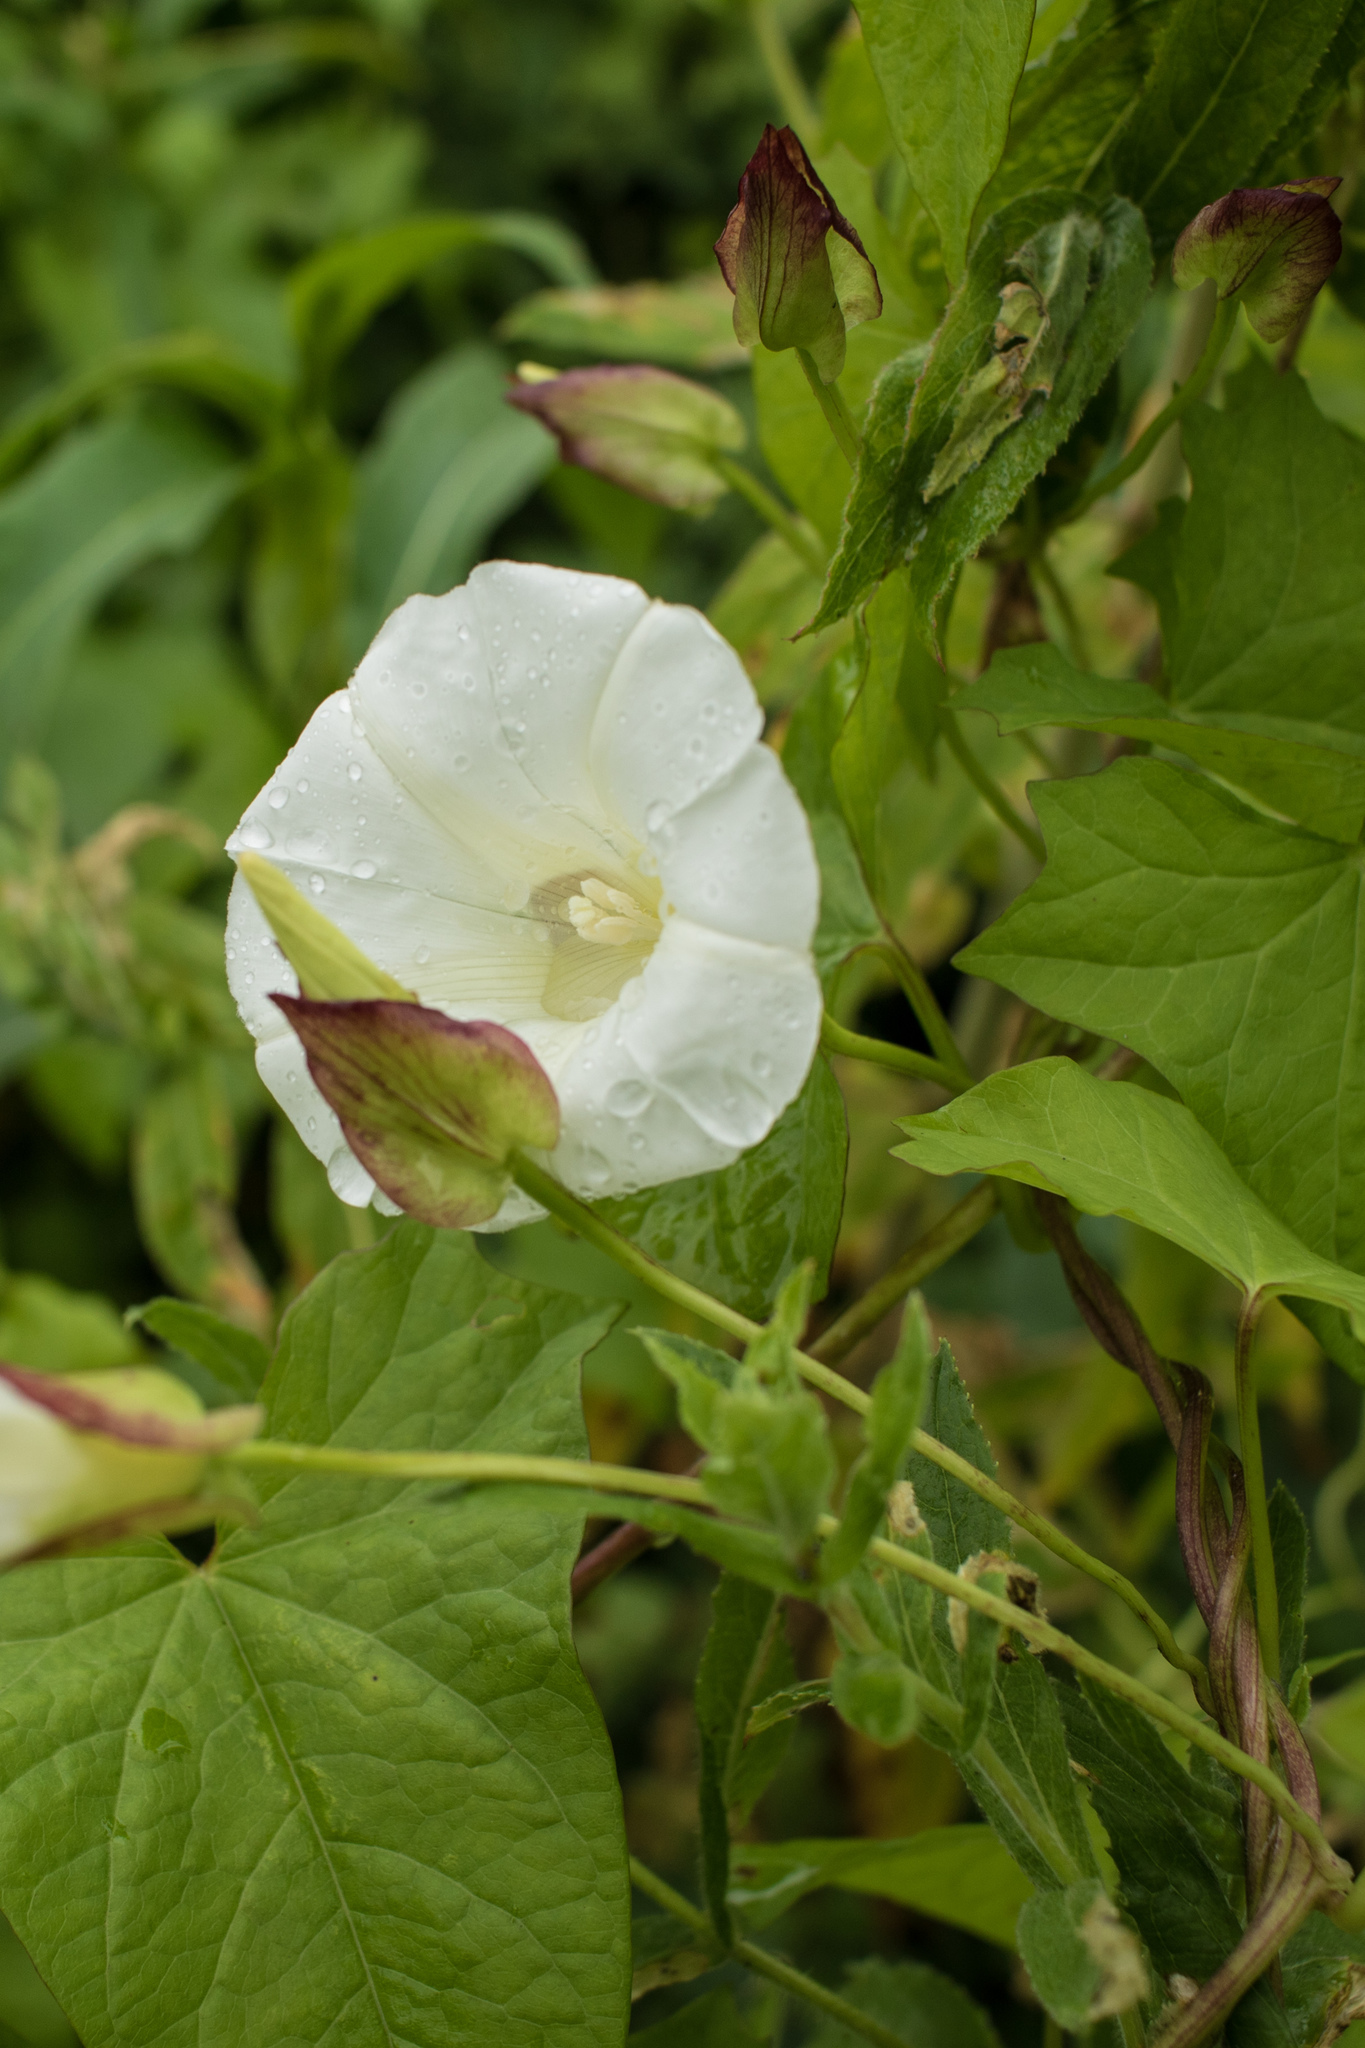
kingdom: Plantae
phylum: Tracheophyta
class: Magnoliopsida
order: Solanales
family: Convolvulaceae
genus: Calystegia
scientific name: Calystegia sepium
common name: Hedge bindweed
